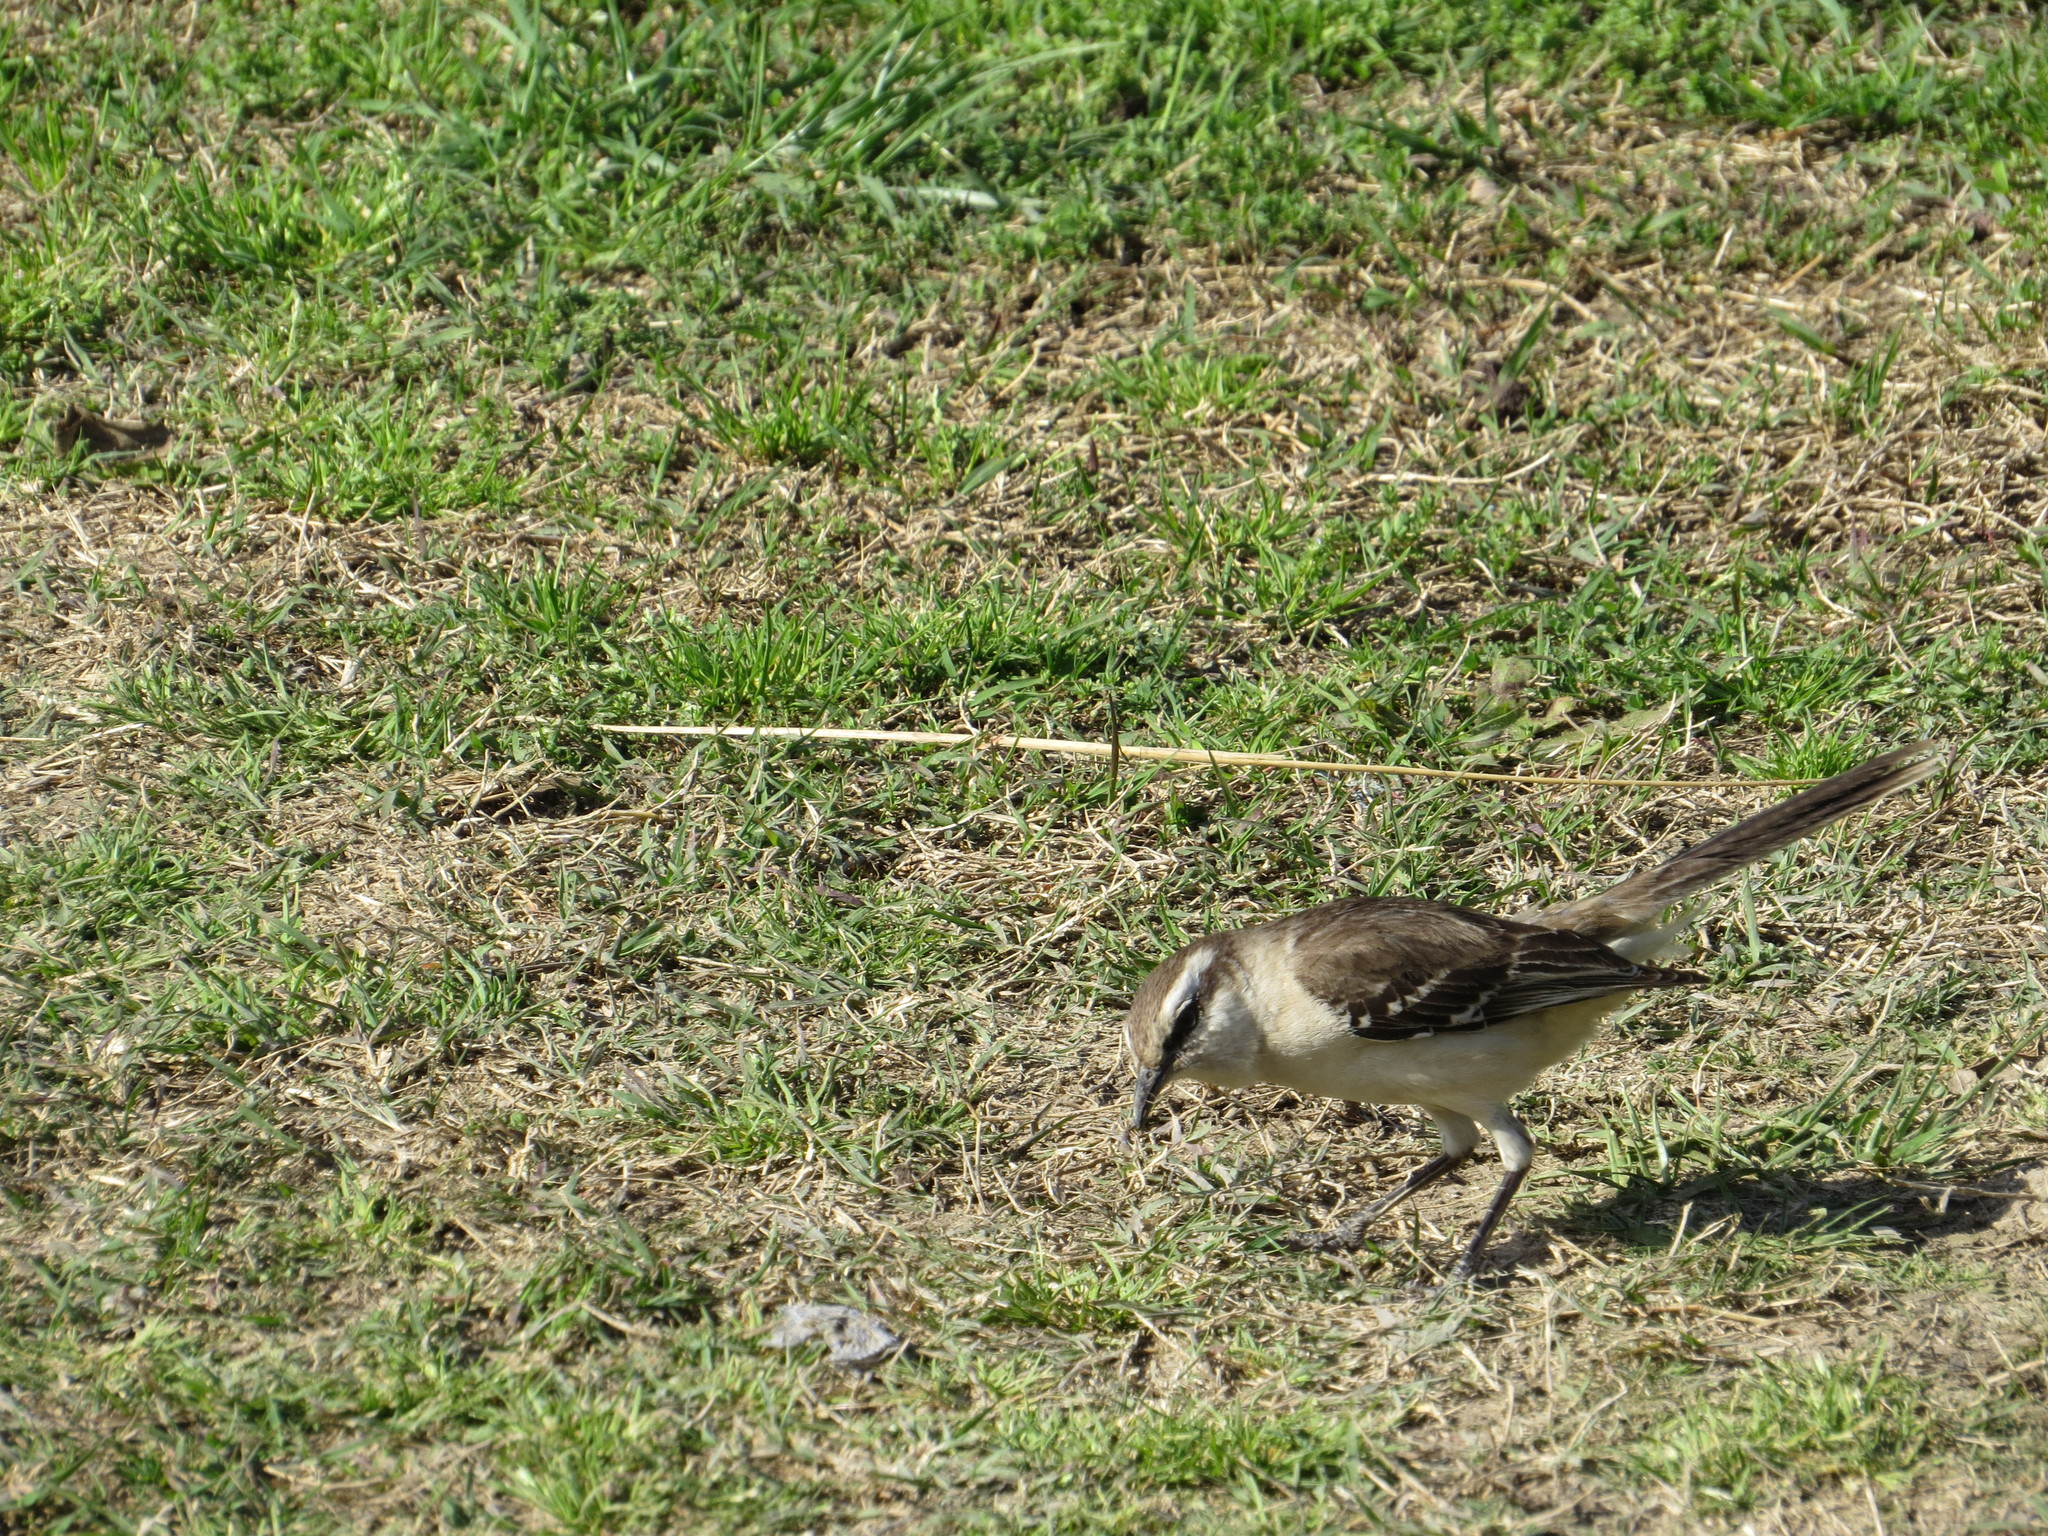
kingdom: Animalia
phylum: Chordata
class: Aves
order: Passeriformes
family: Mimidae
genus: Mimus
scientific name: Mimus saturninus
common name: Chalk-browed mockingbird
